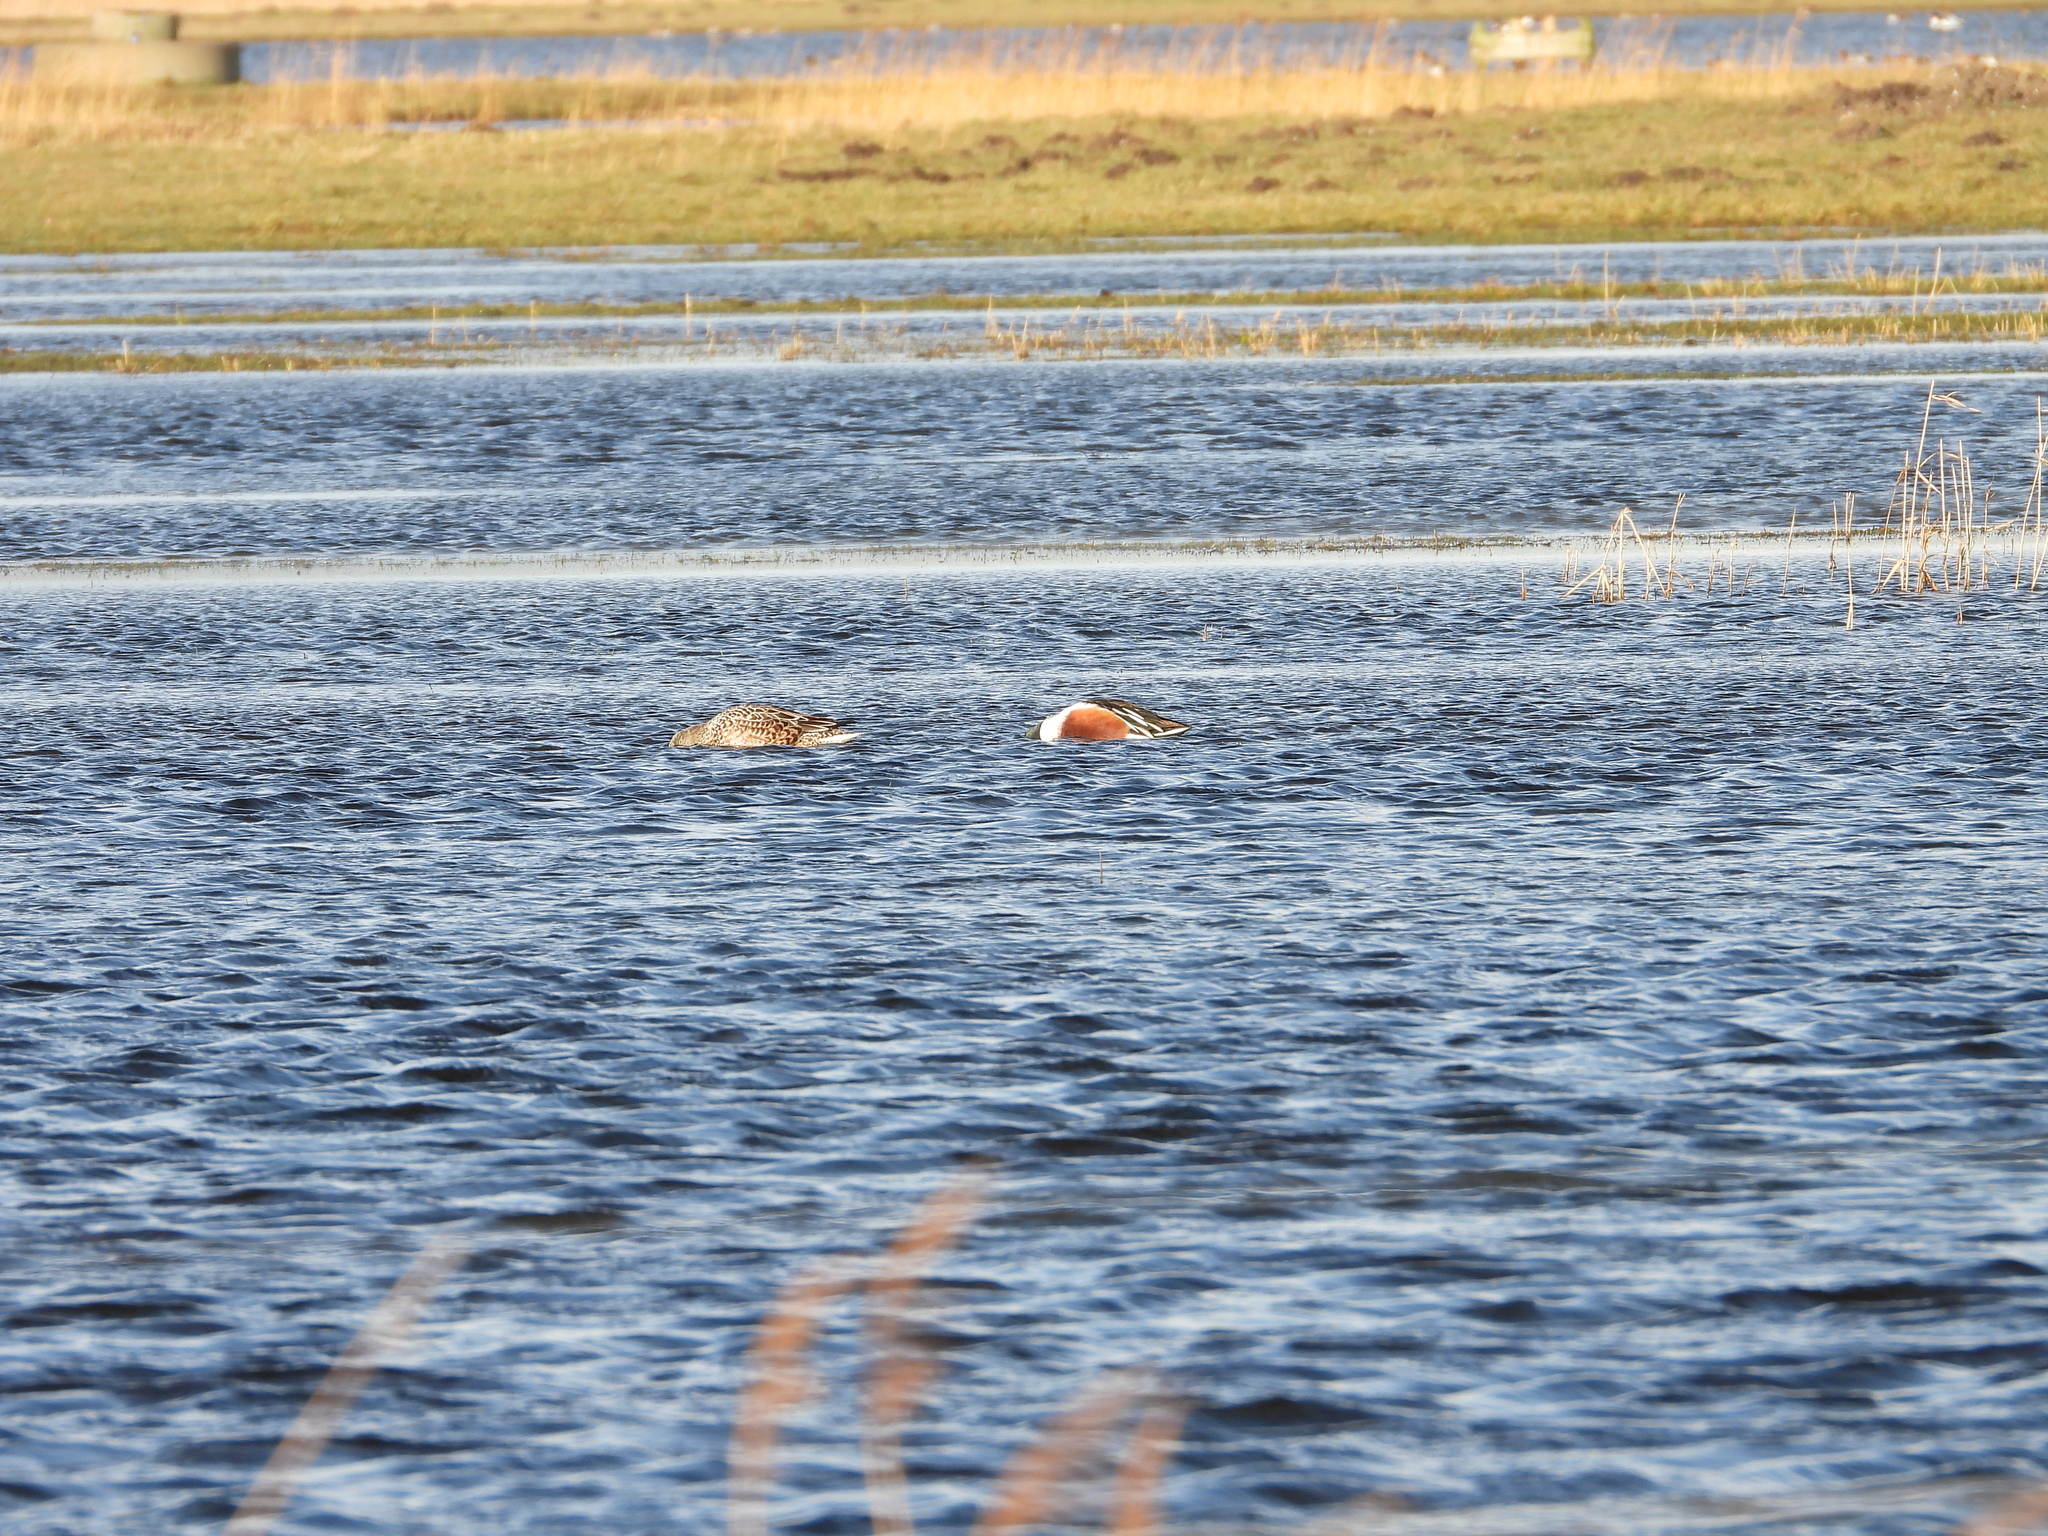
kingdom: Animalia
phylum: Chordata
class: Aves
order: Anseriformes
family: Anatidae
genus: Spatula
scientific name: Spatula clypeata
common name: Northern shoveler
